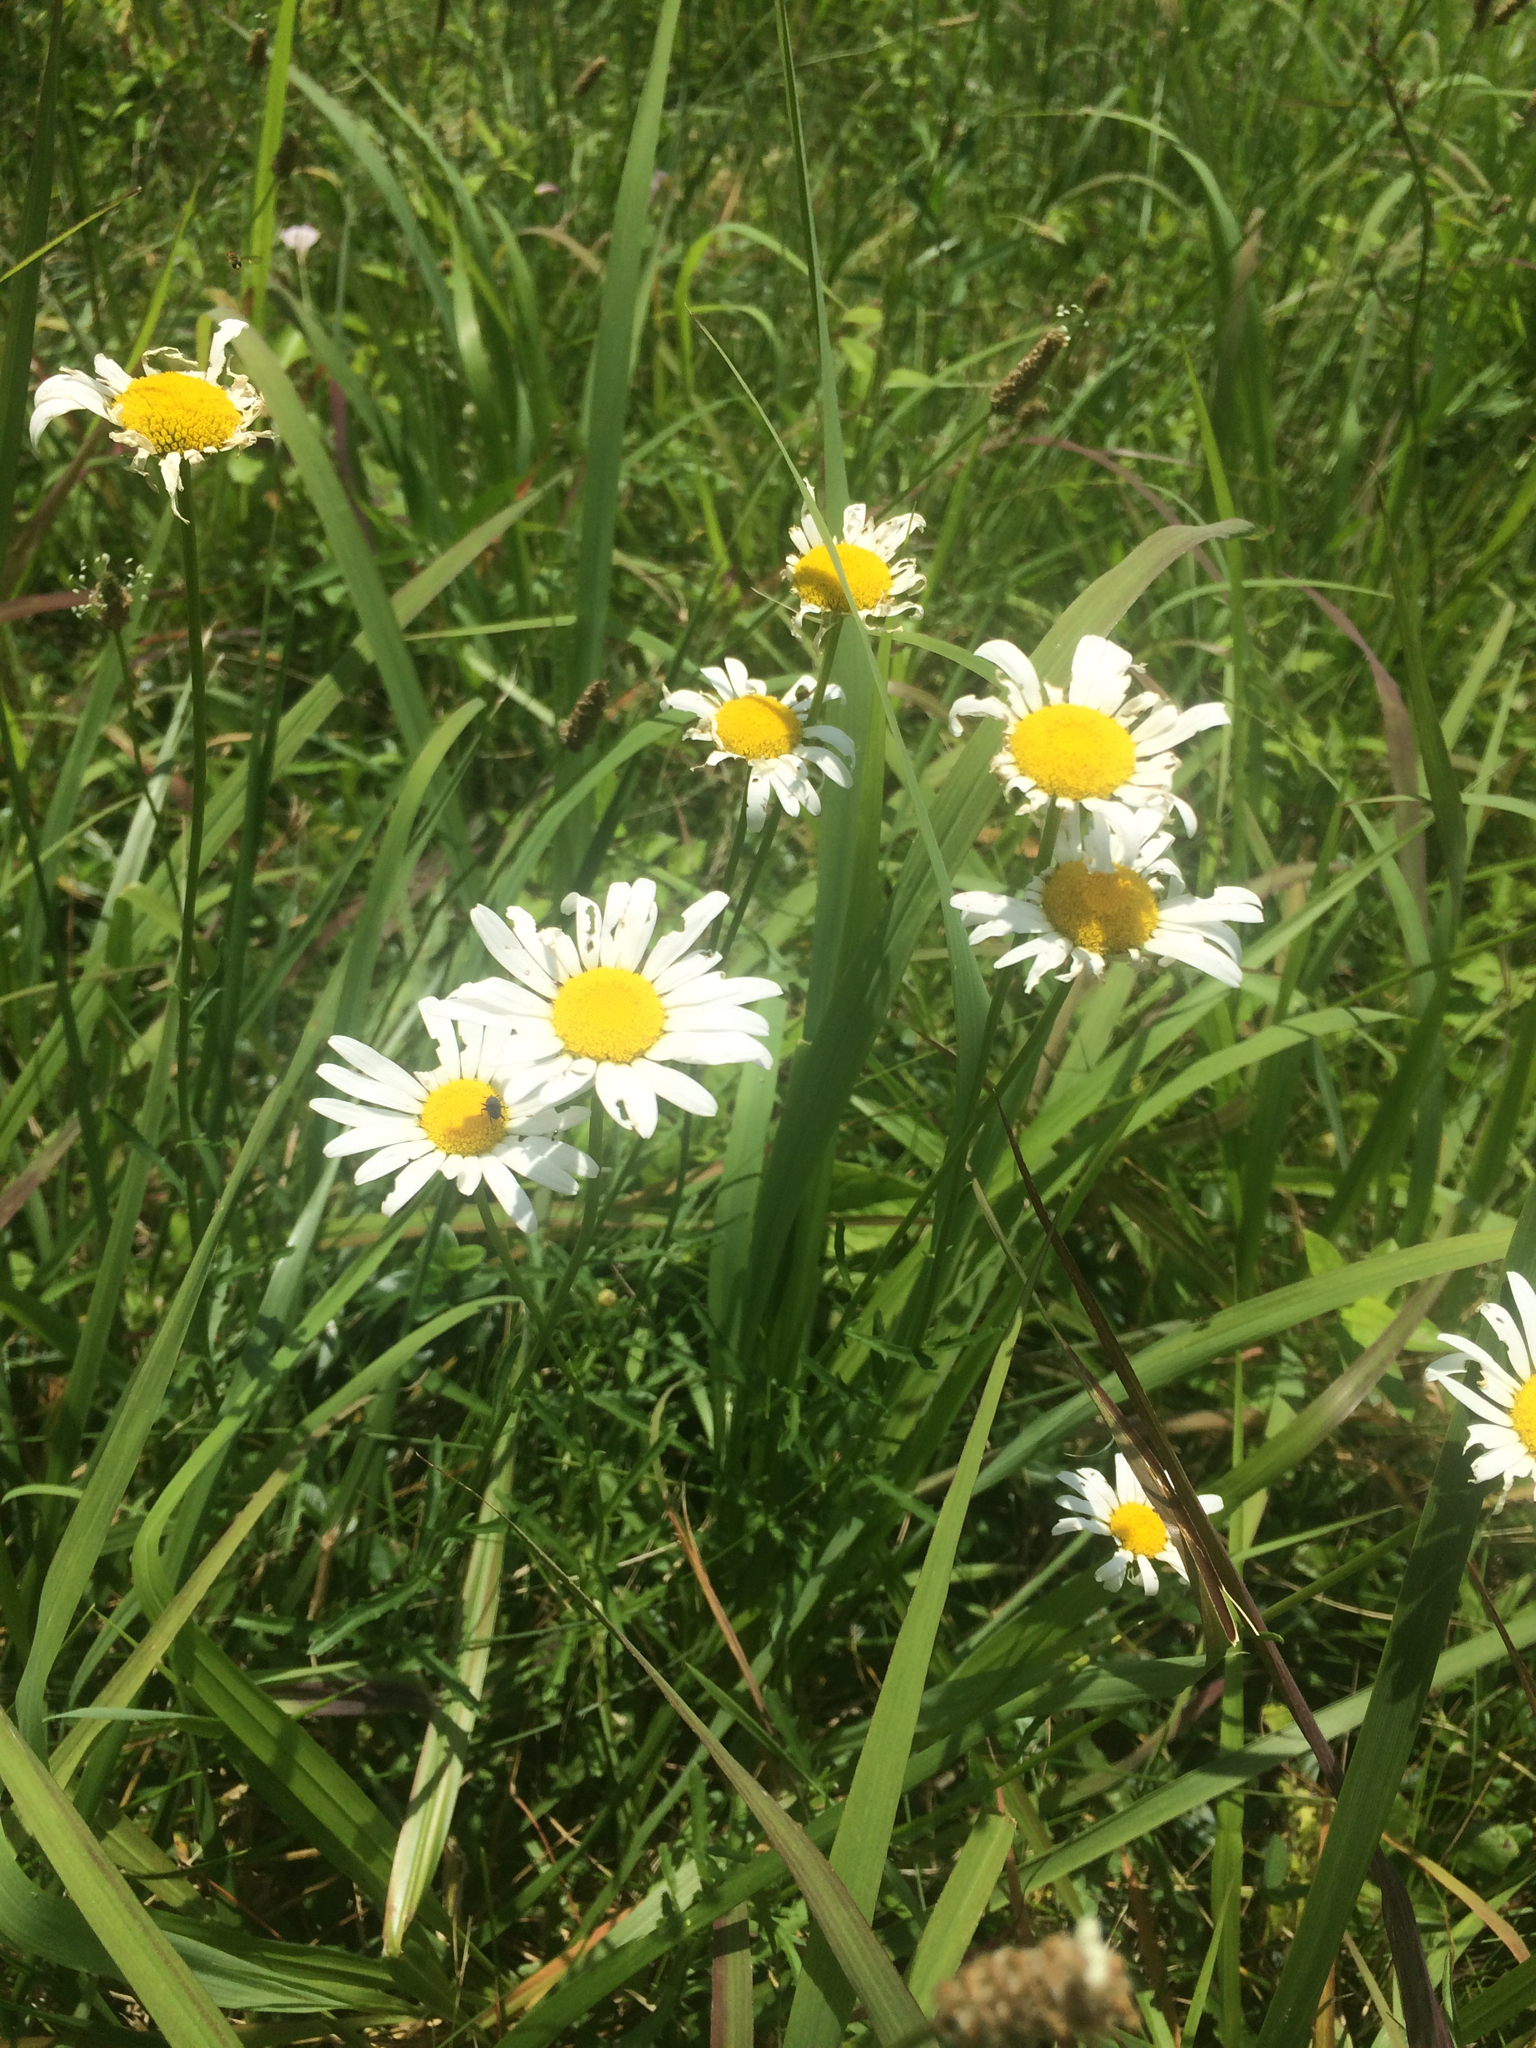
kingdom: Plantae
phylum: Tracheophyta
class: Magnoliopsida
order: Asterales
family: Asteraceae
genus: Leucanthemum
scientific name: Leucanthemum vulgare
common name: Oxeye daisy
